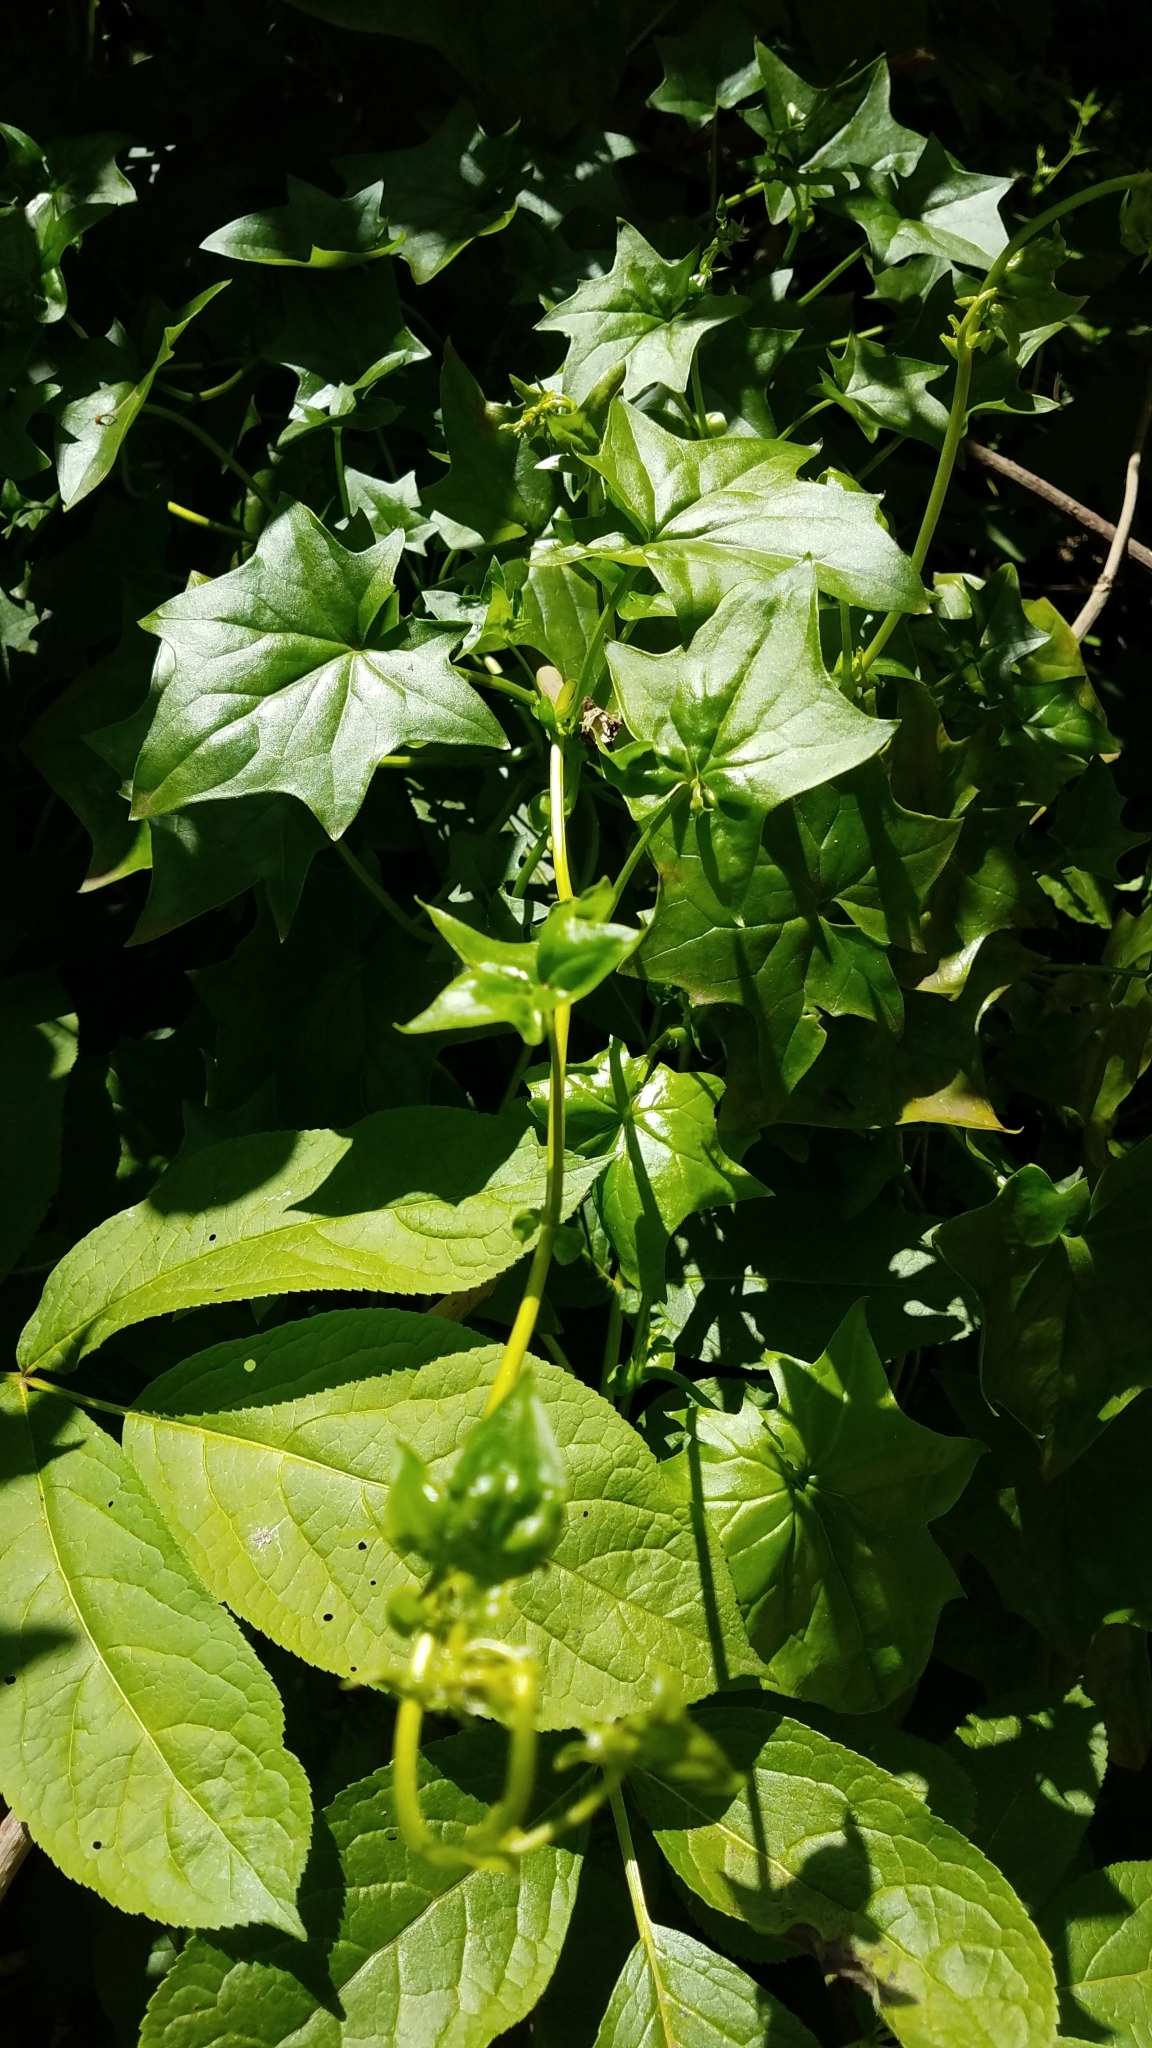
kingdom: Plantae
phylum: Tracheophyta
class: Magnoliopsida
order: Asterales
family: Asteraceae
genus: Delairea
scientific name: Delairea odorata
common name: Cape-ivy
